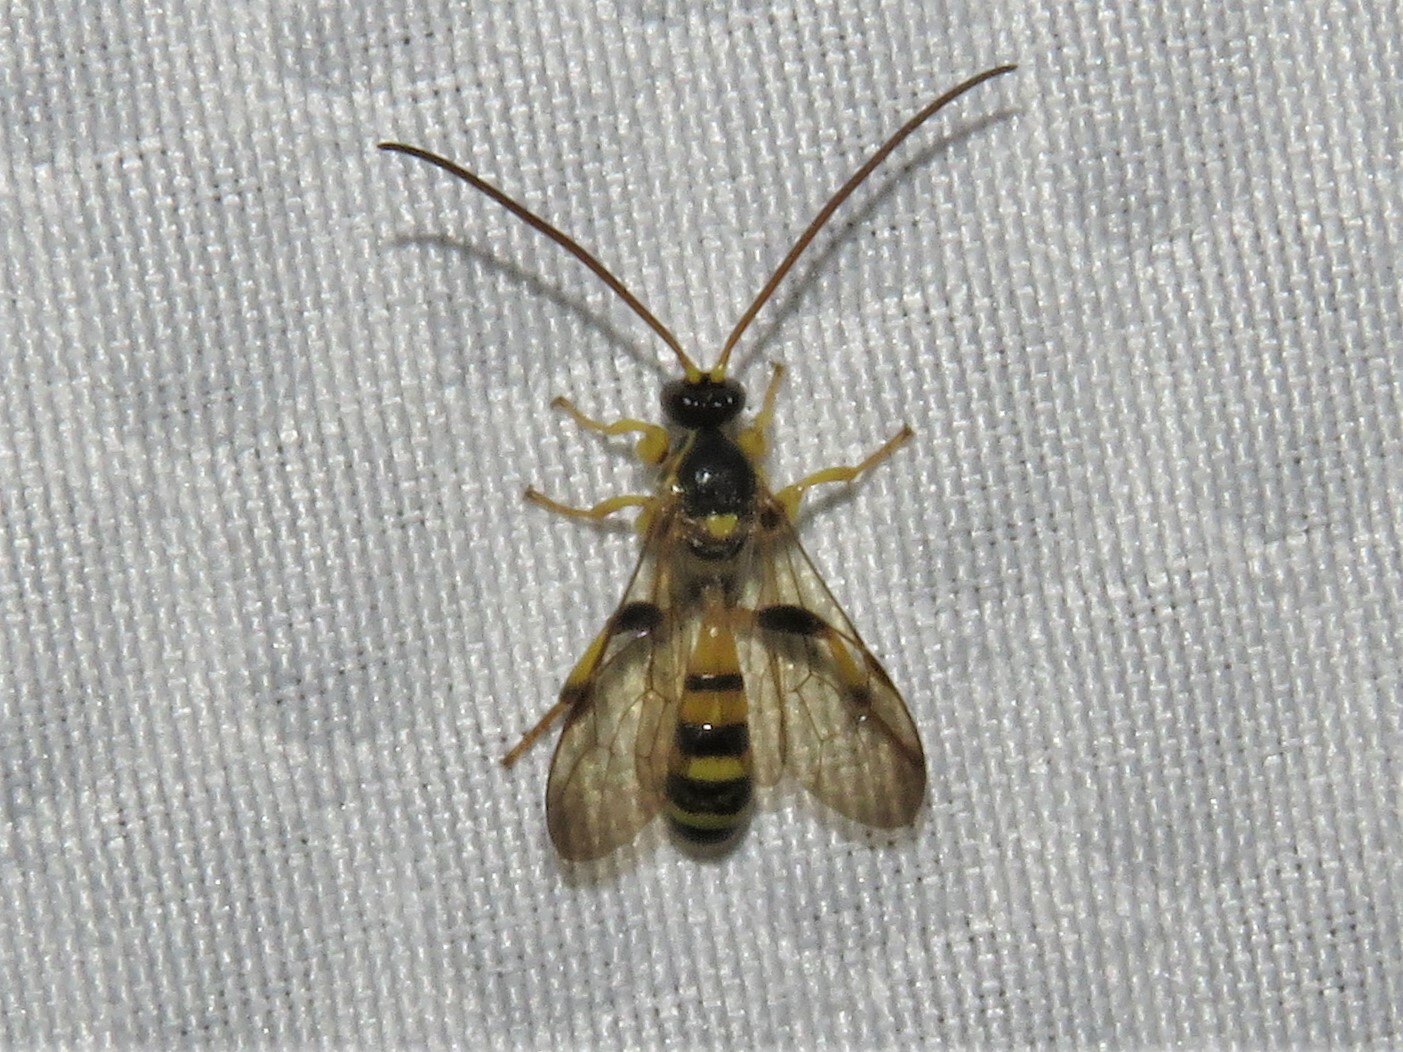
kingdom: Animalia
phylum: Arthropoda
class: Insecta
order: Hymenoptera
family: Ichneumonidae
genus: Colpotrochia
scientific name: Colpotrochia crassipes
